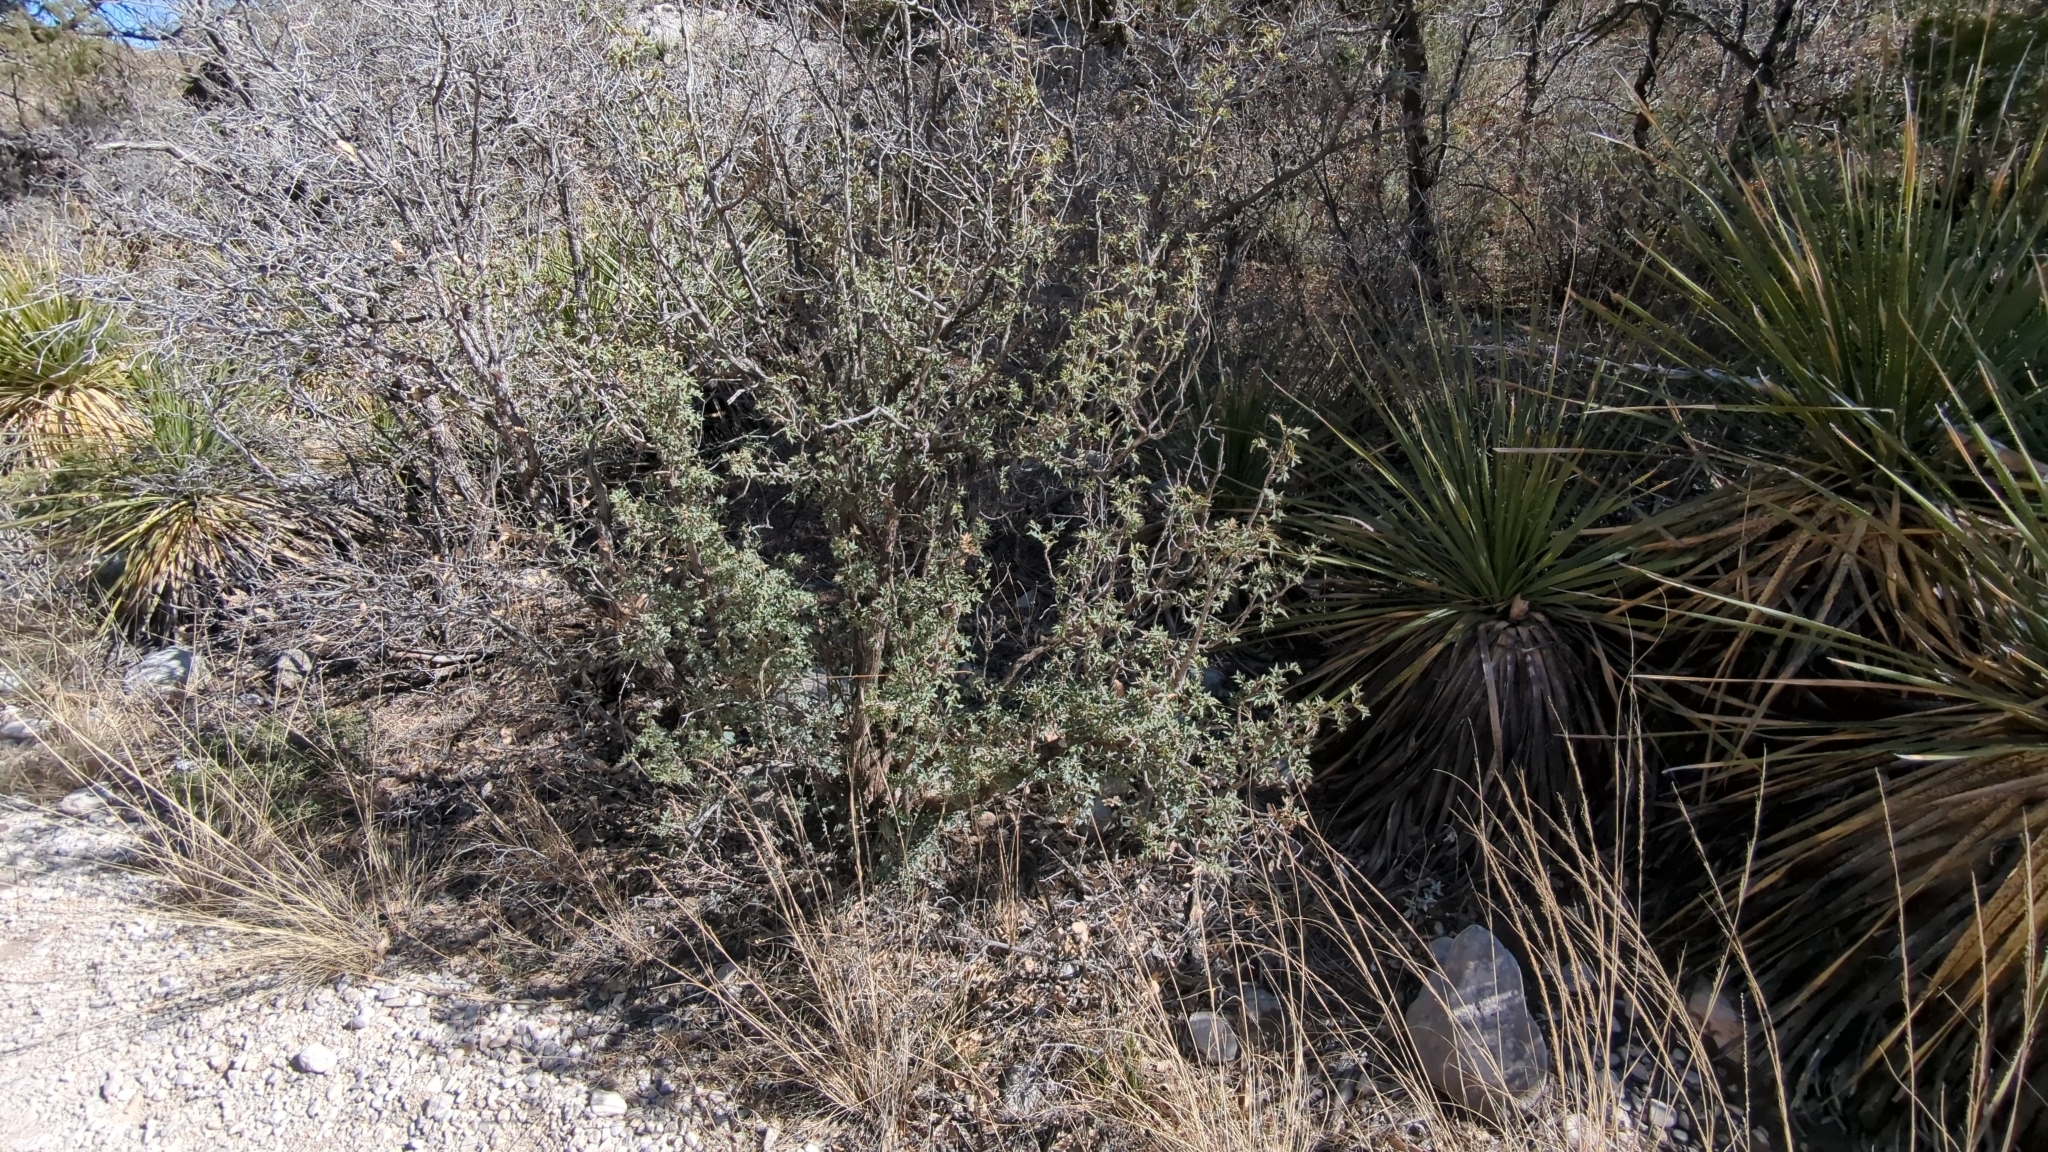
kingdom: Plantae
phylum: Tracheophyta
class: Magnoliopsida
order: Ranunculales
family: Berberidaceae
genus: Alloberberis
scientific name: Alloberberis haematocarpa
